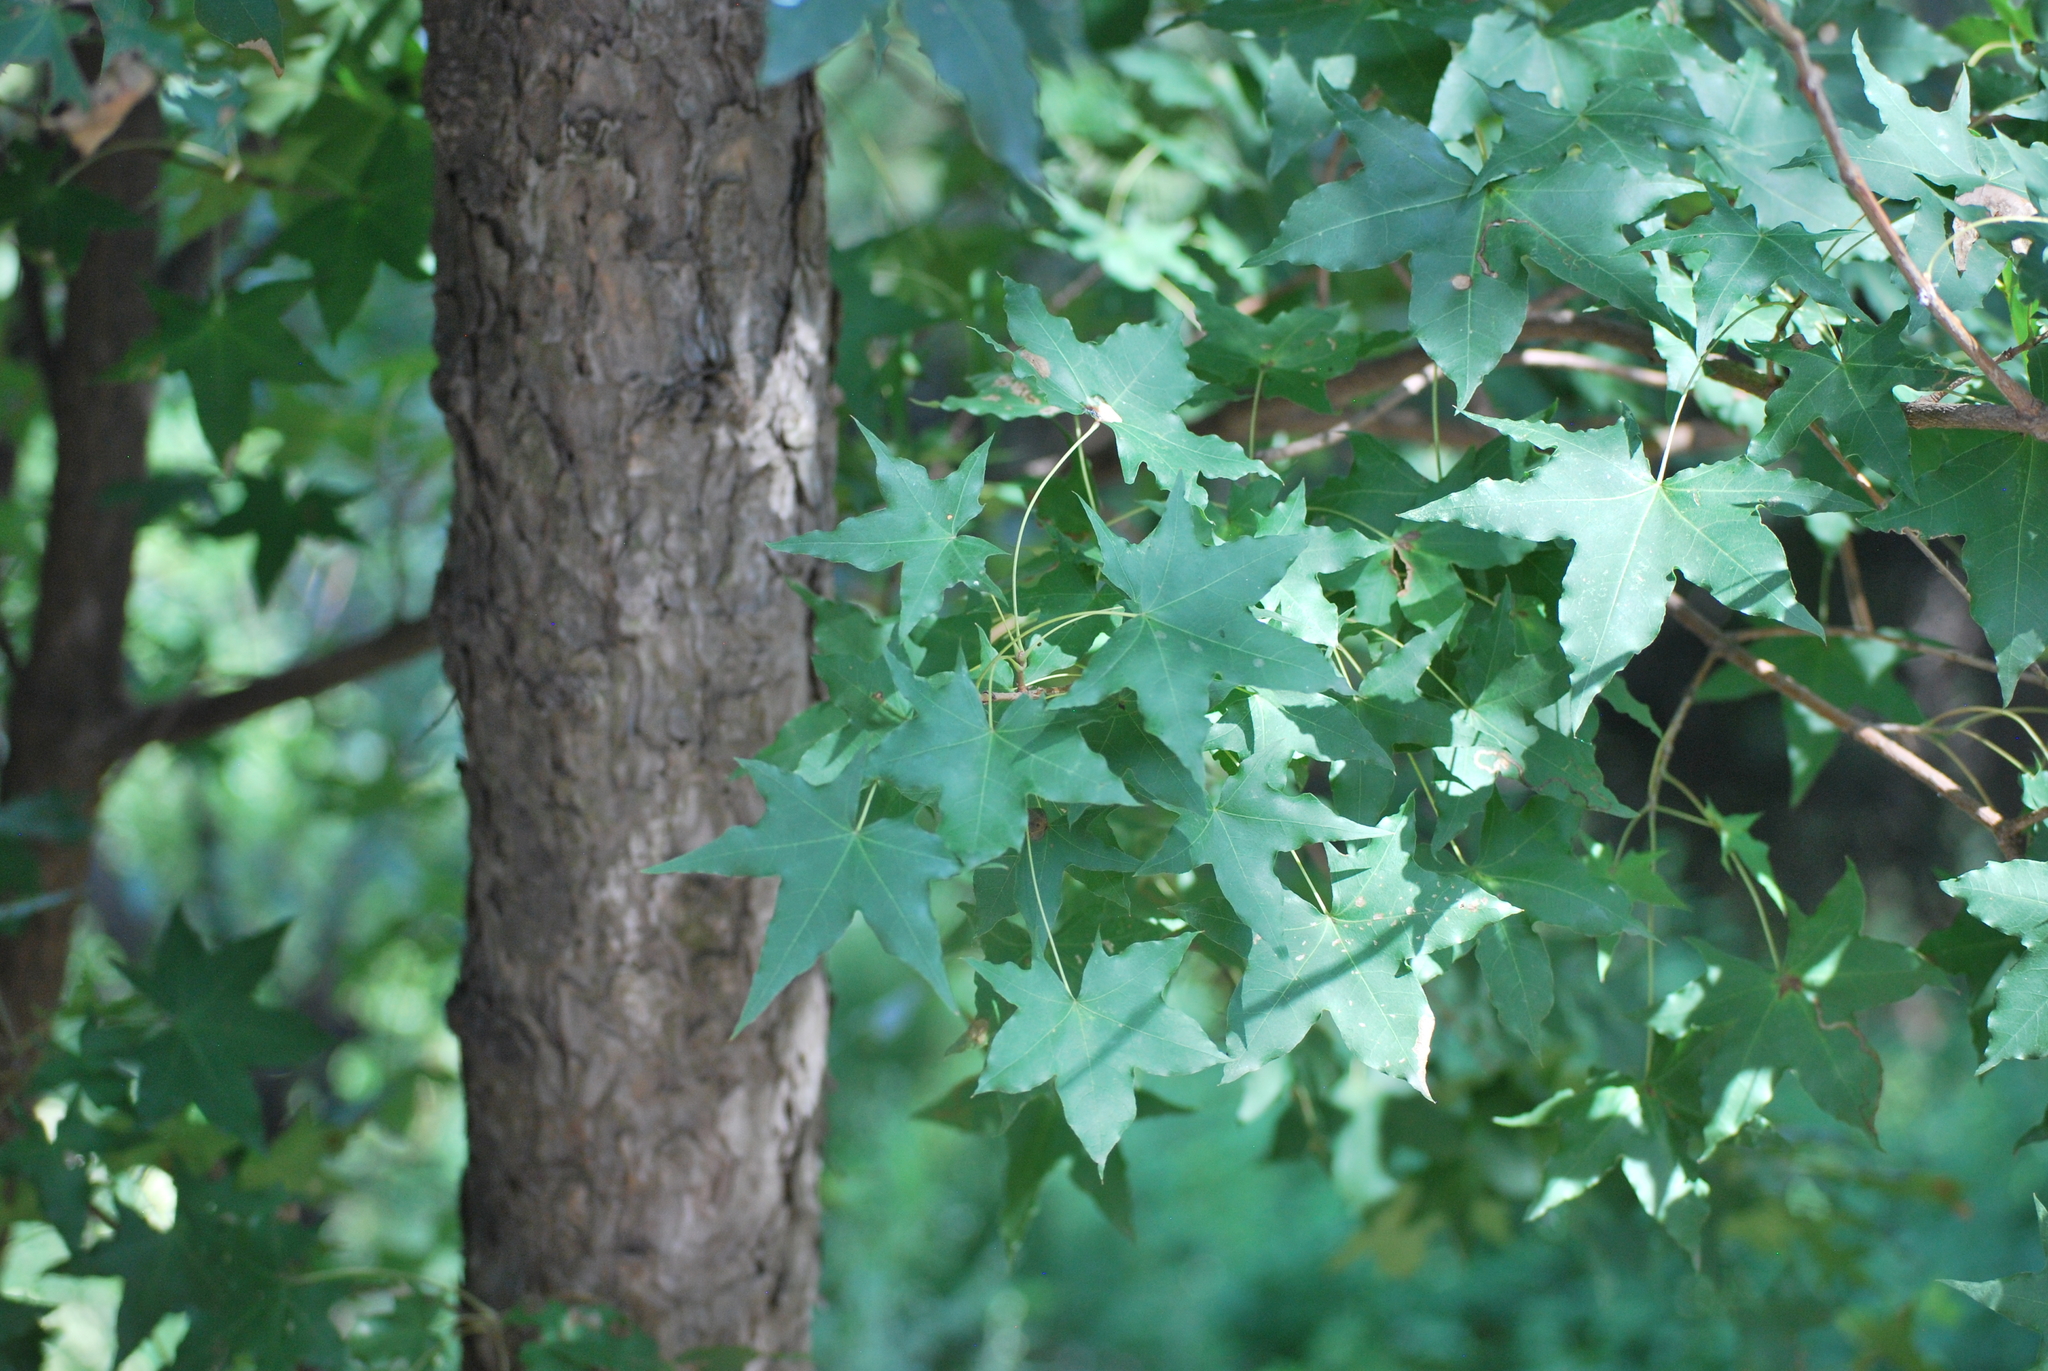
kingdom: Plantae
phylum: Tracheophyta
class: Magnoliopsida
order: Sapindales
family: Sapindaceae
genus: Acer
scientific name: Acer truncatum
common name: Shantung maple
